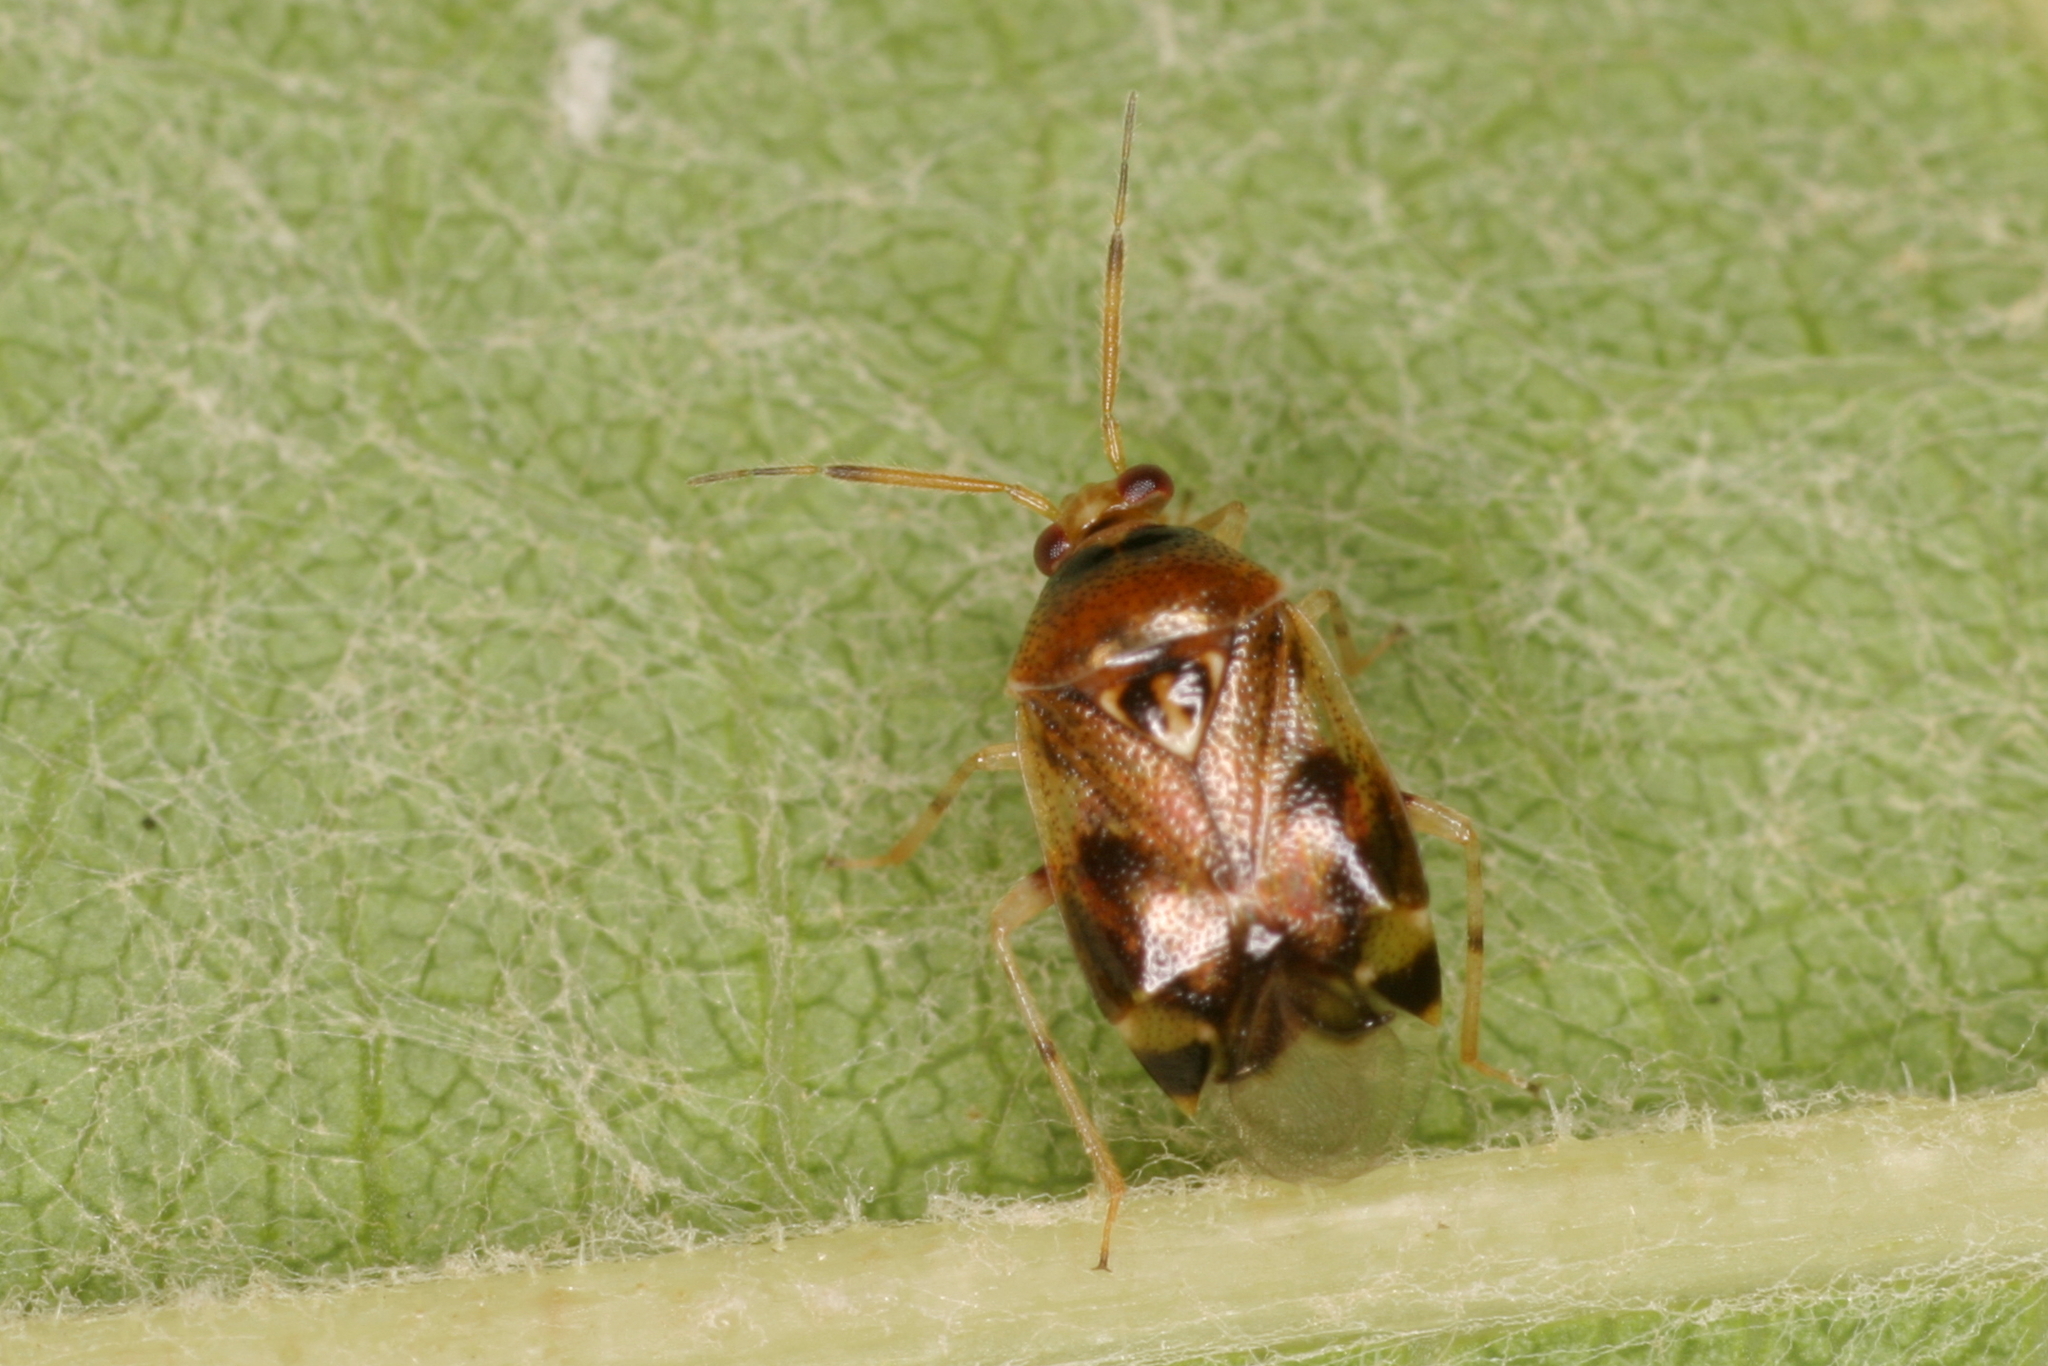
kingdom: Animalia
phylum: Arthropoda
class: Insecta
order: Hemiptera
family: Miridae
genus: Deraeocoris
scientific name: Deraeocoris lutescens
